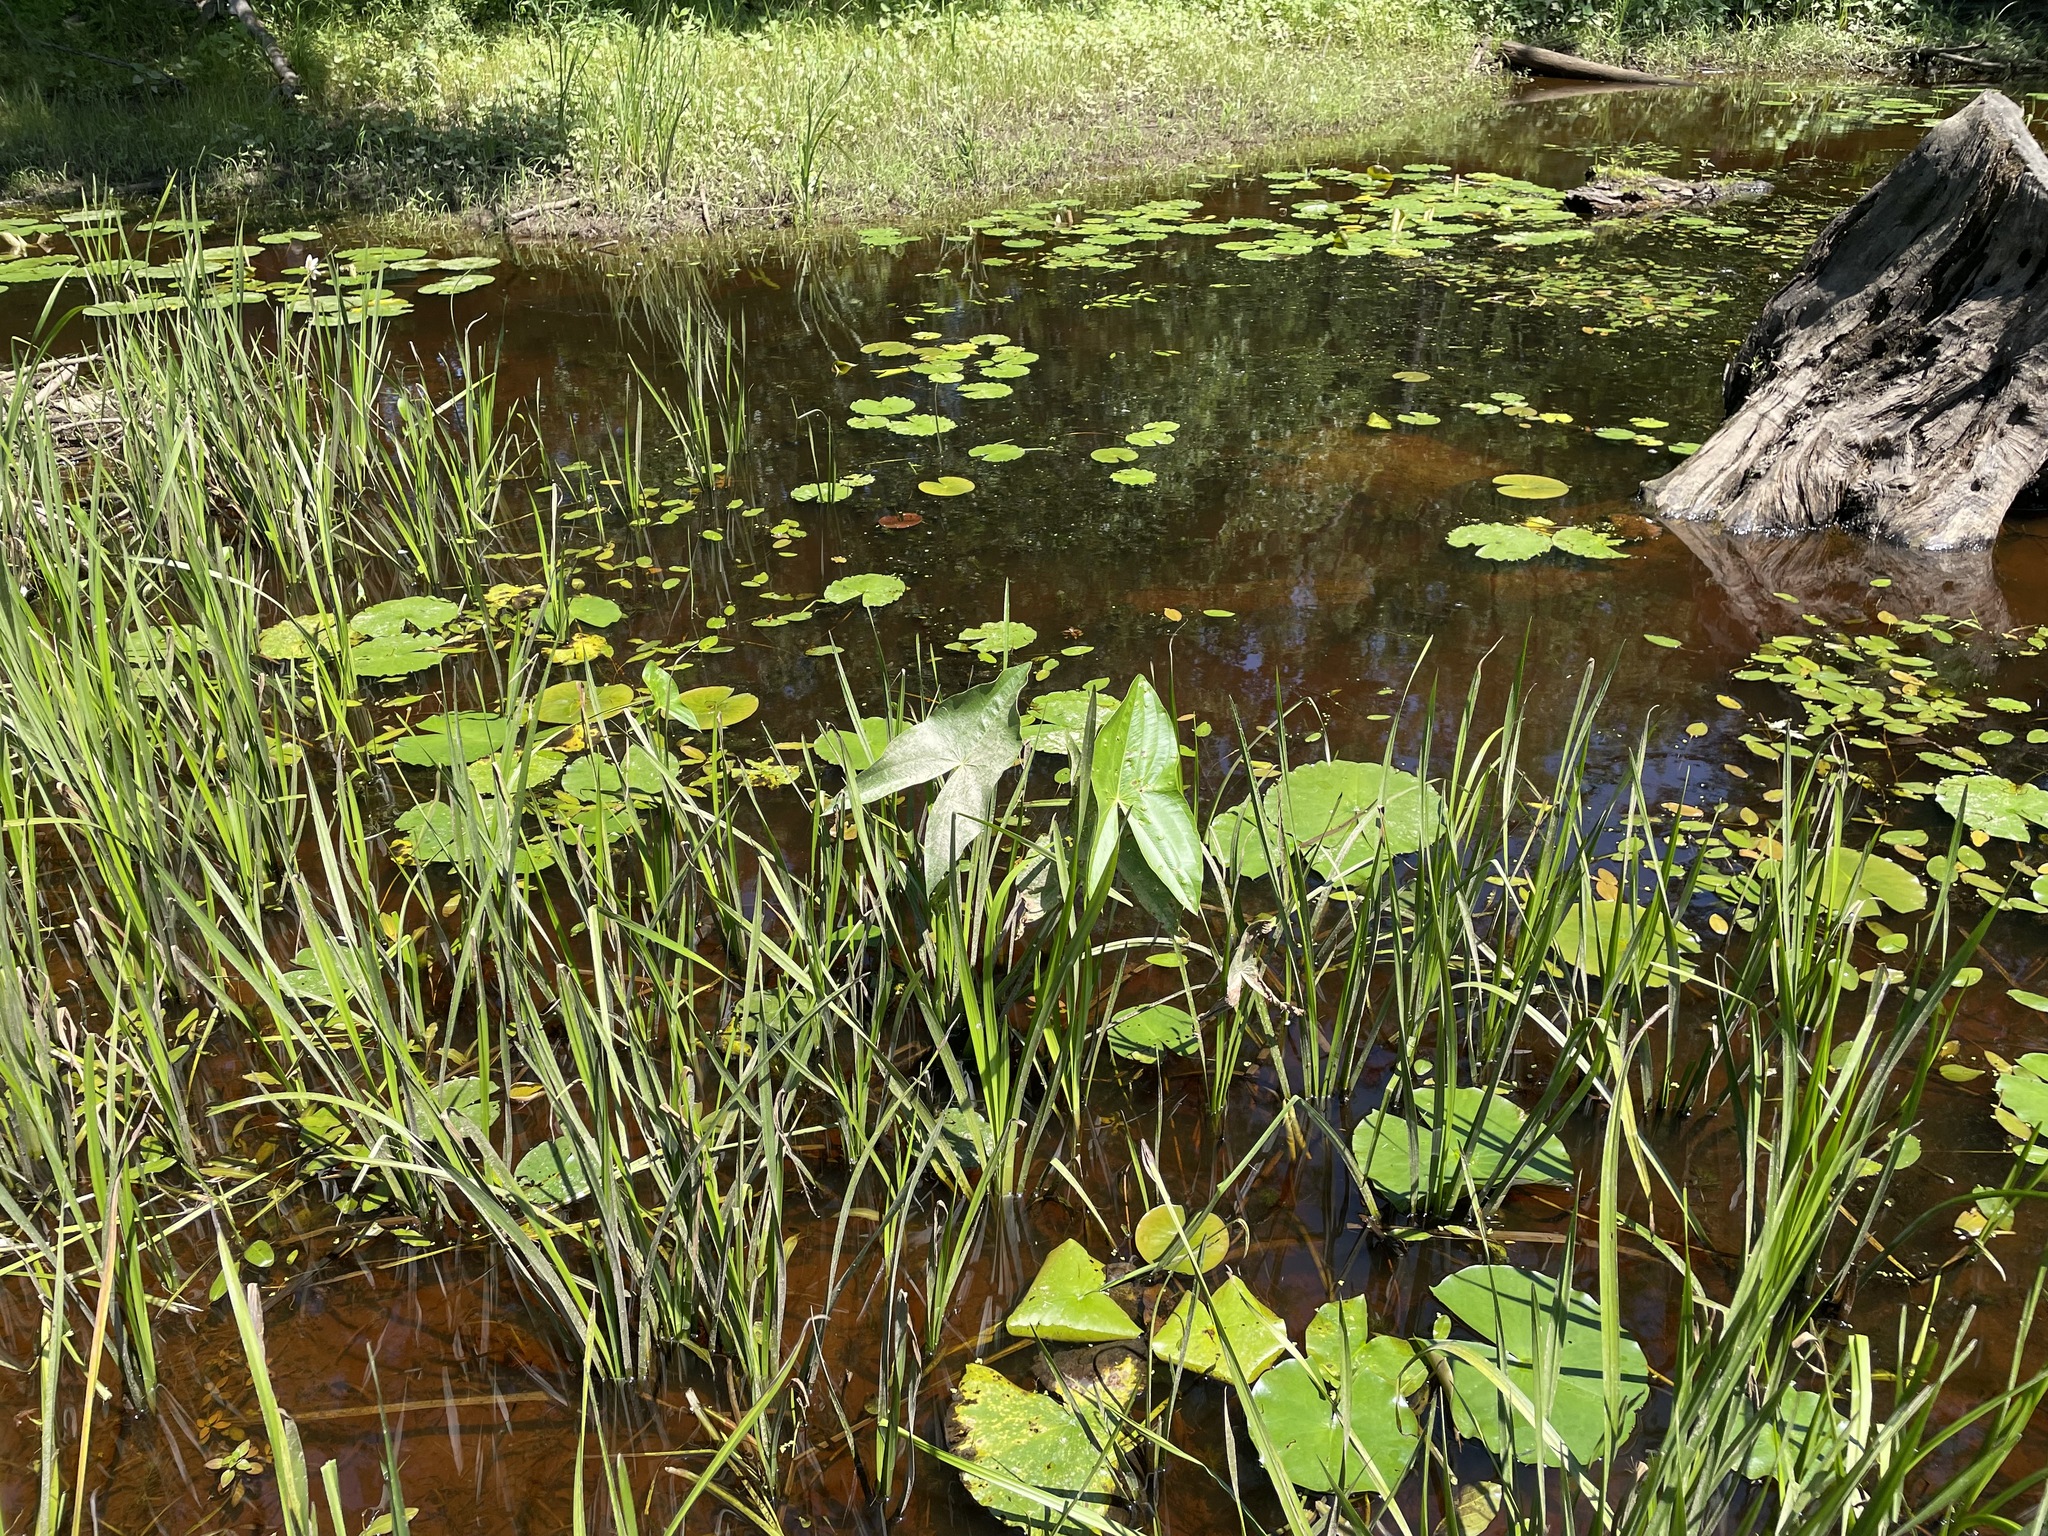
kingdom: Plantae
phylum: Tracheophyta
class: Liliopsida
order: Alismatales
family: Alismataceae
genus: Sagittaria
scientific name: Sagittaria latifolia
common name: Duck-potato
